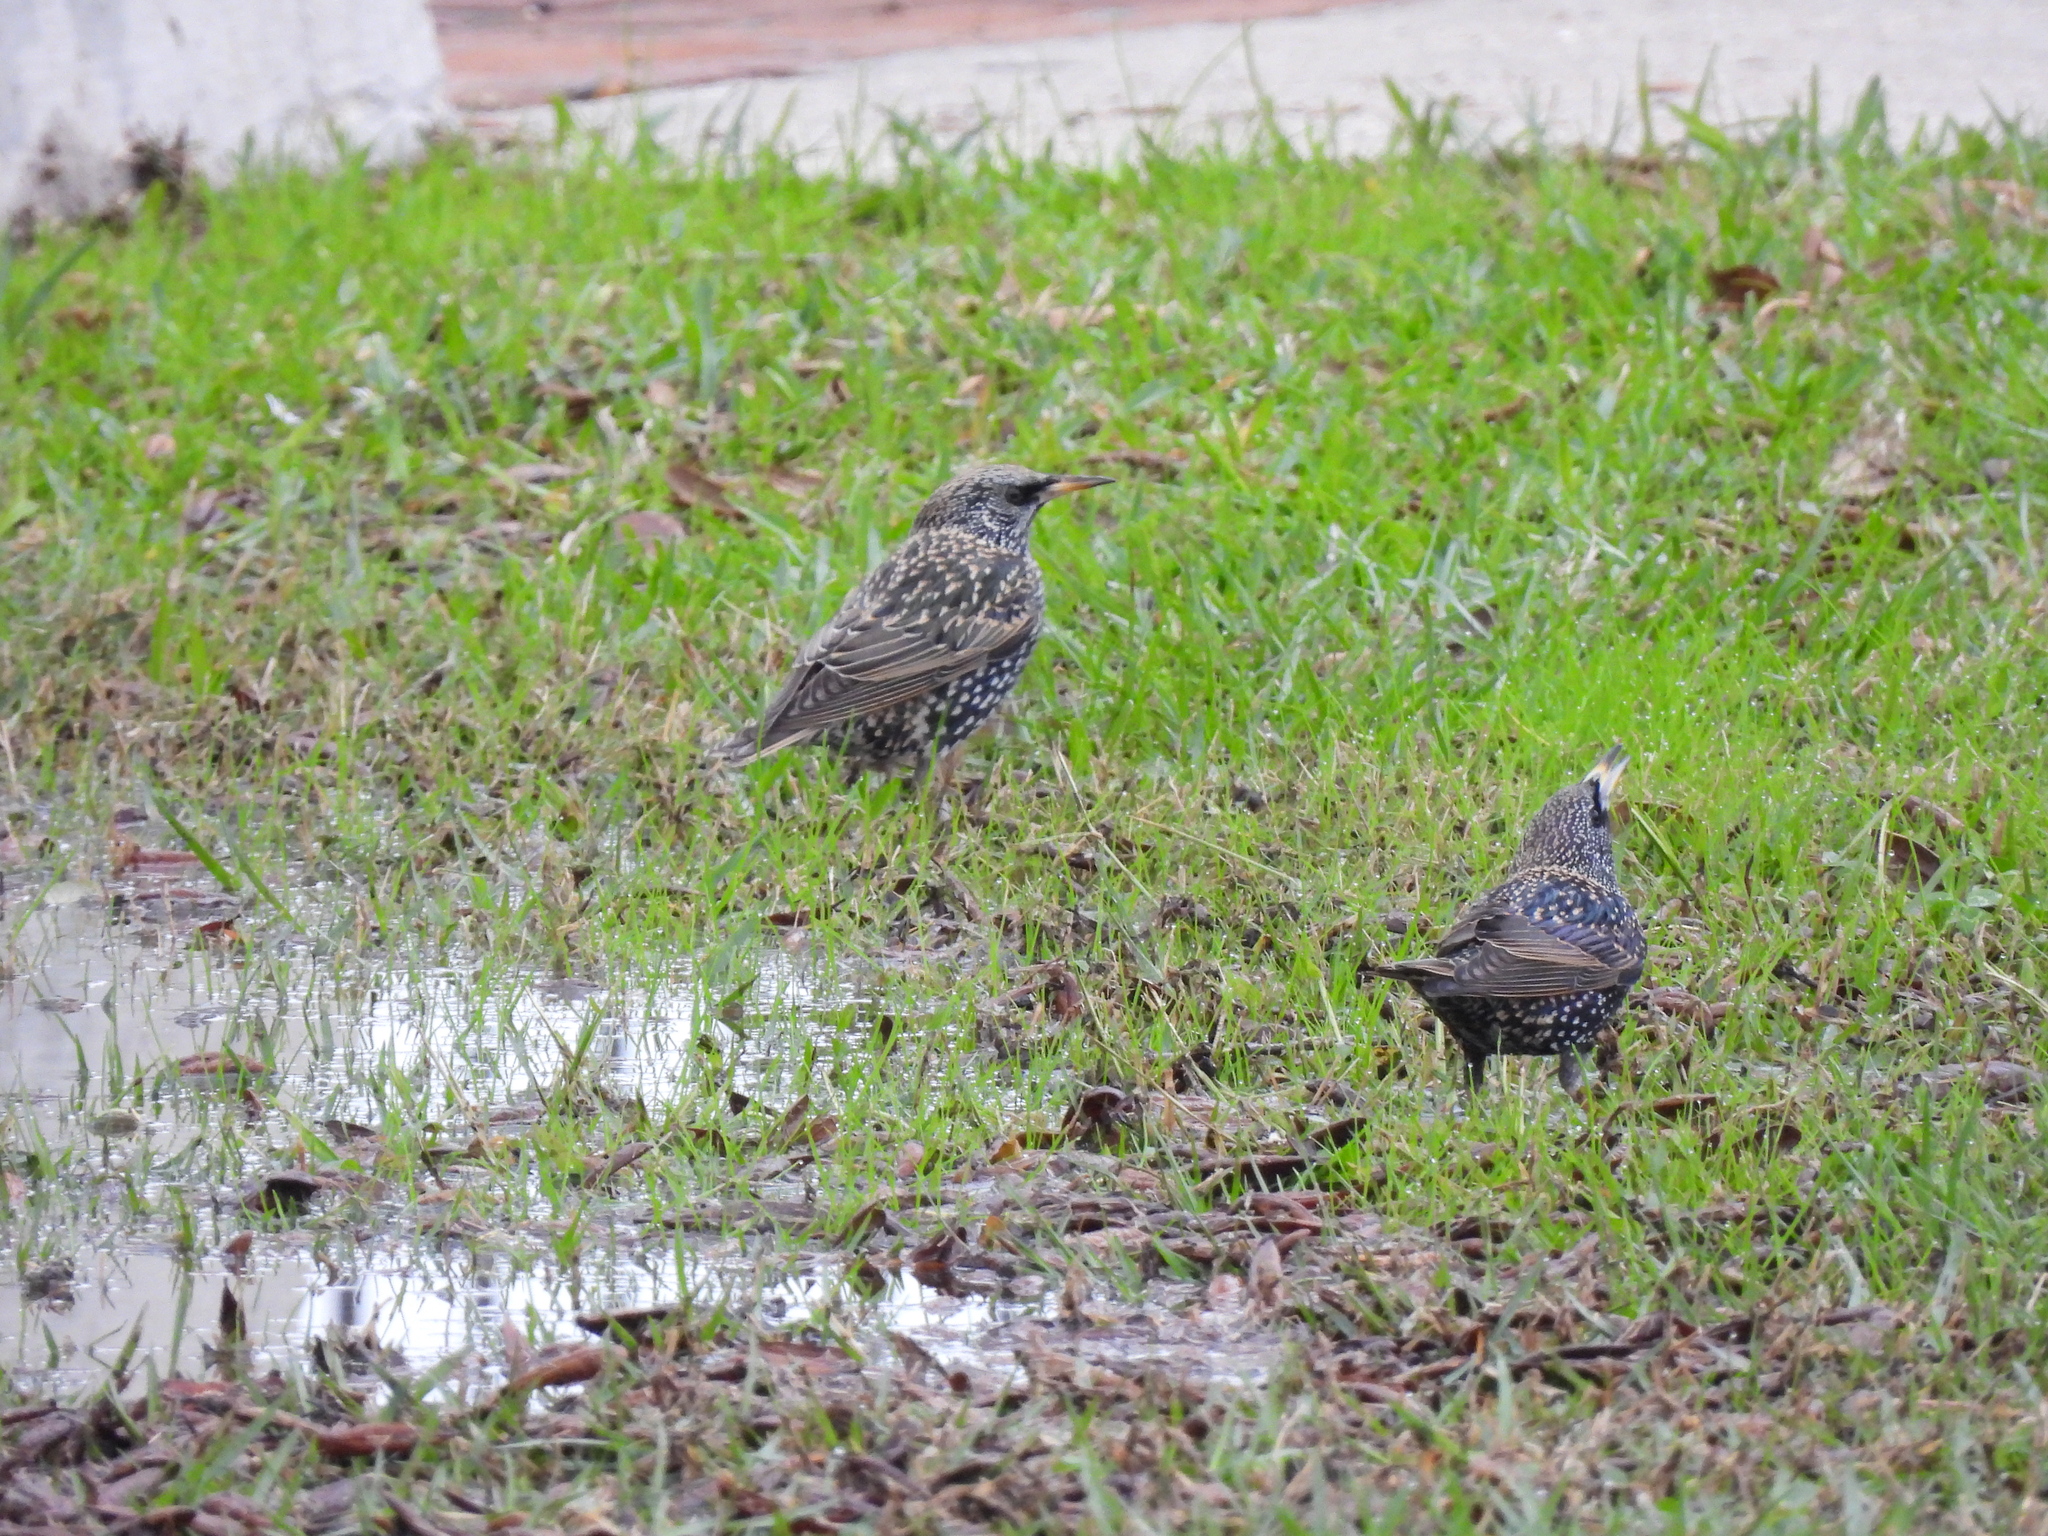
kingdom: Animalia
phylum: Chordata
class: Aves
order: Passeriformes
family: Sturnidae
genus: Sturnus
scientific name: Sturnus vulgaris
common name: Common starling
